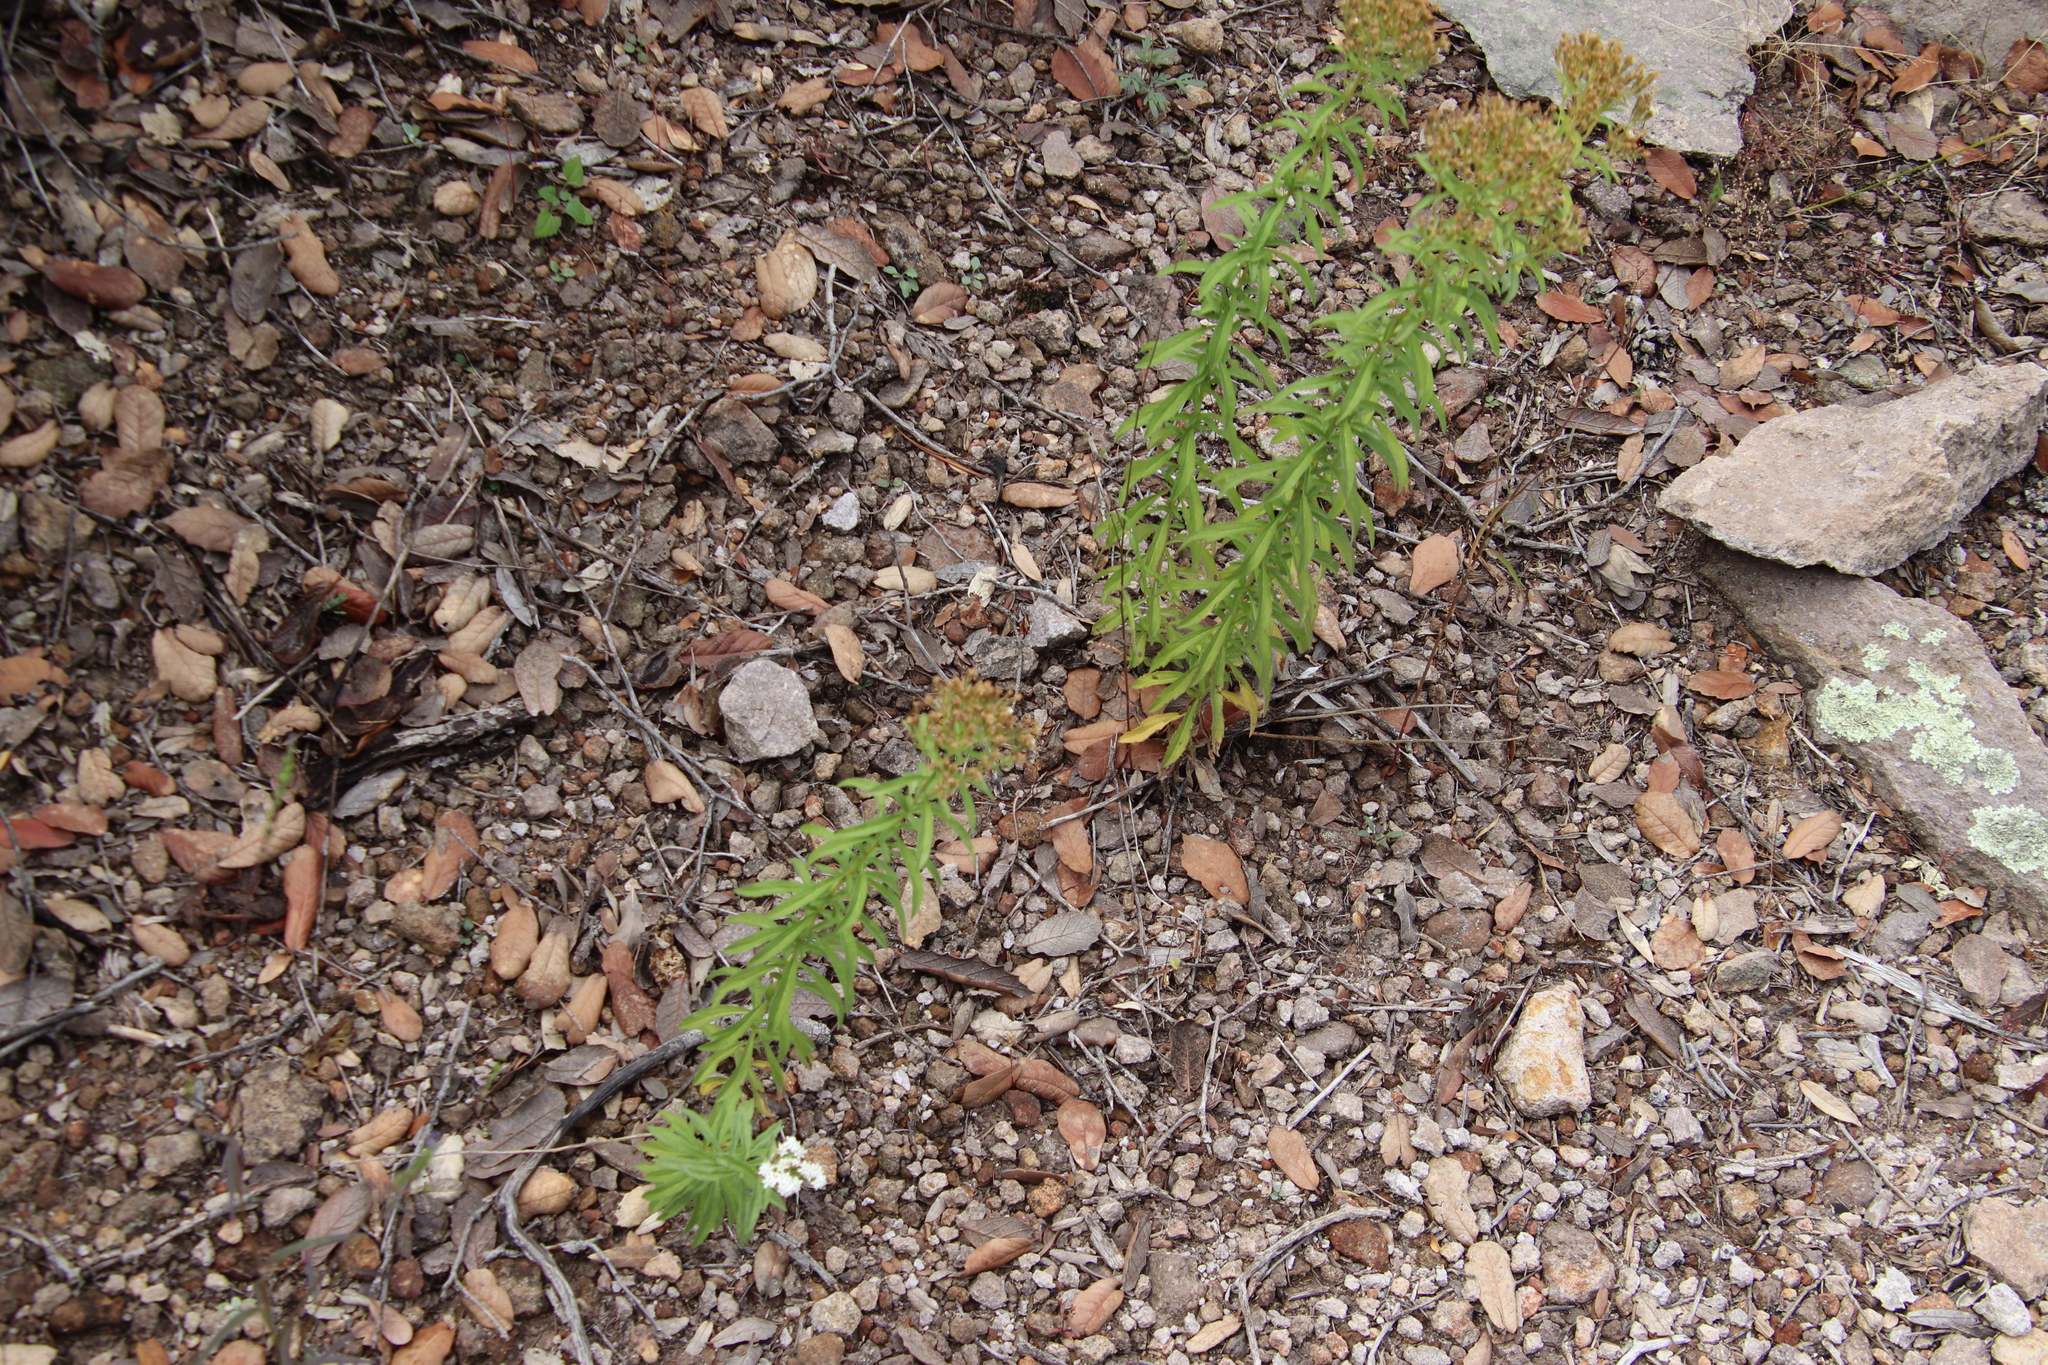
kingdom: Plantae
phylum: Tracheophyta
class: Magnoliopsida
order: Asterales
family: Asteraceae
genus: Stevia
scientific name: Stevia serrata
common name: Sawtooth candyleaf
